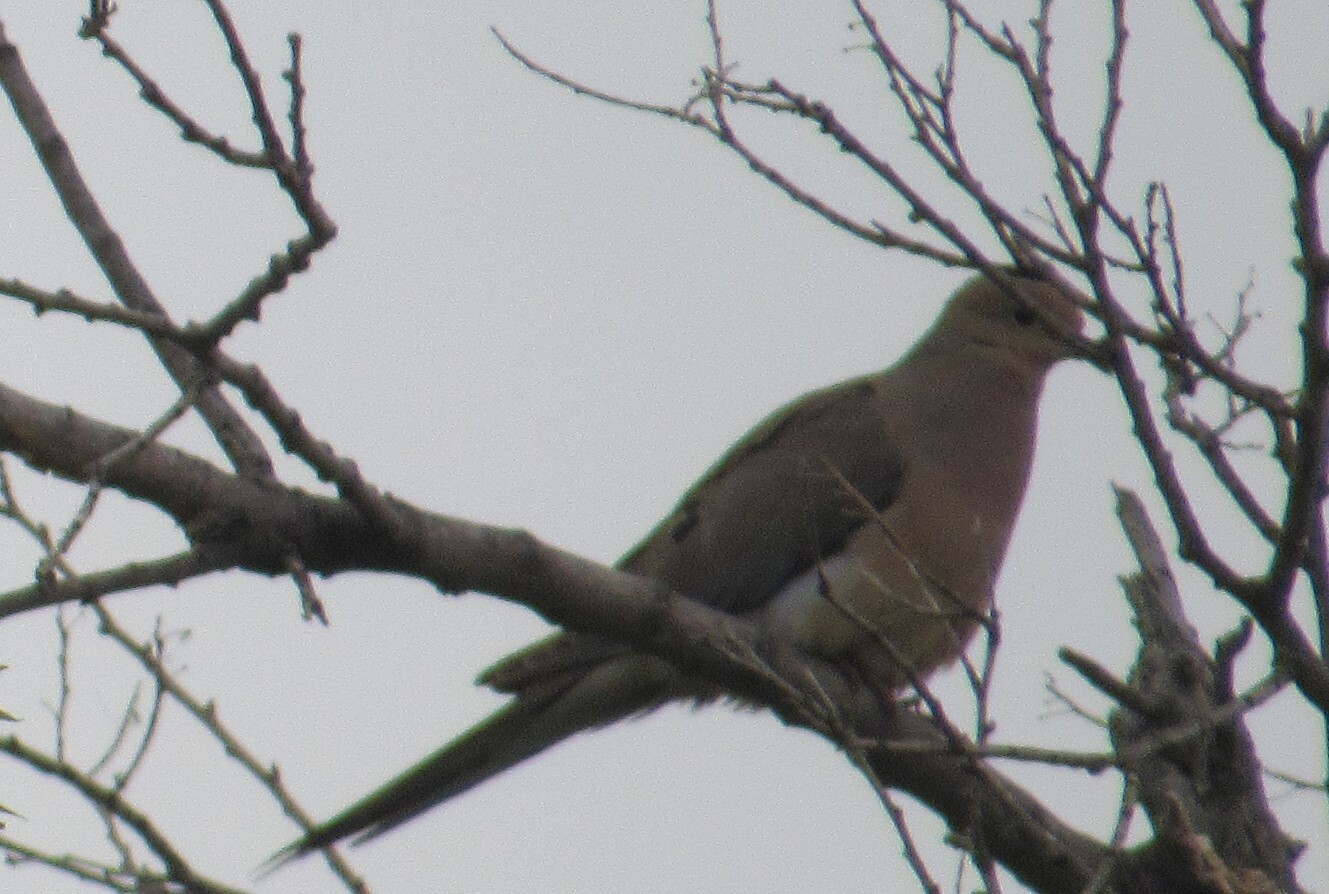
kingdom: Animalia
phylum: Chordata
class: Aves
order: Columbiformes
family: Columbidae
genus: Zenaida
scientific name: Zenaida macroura
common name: Mourning dove
